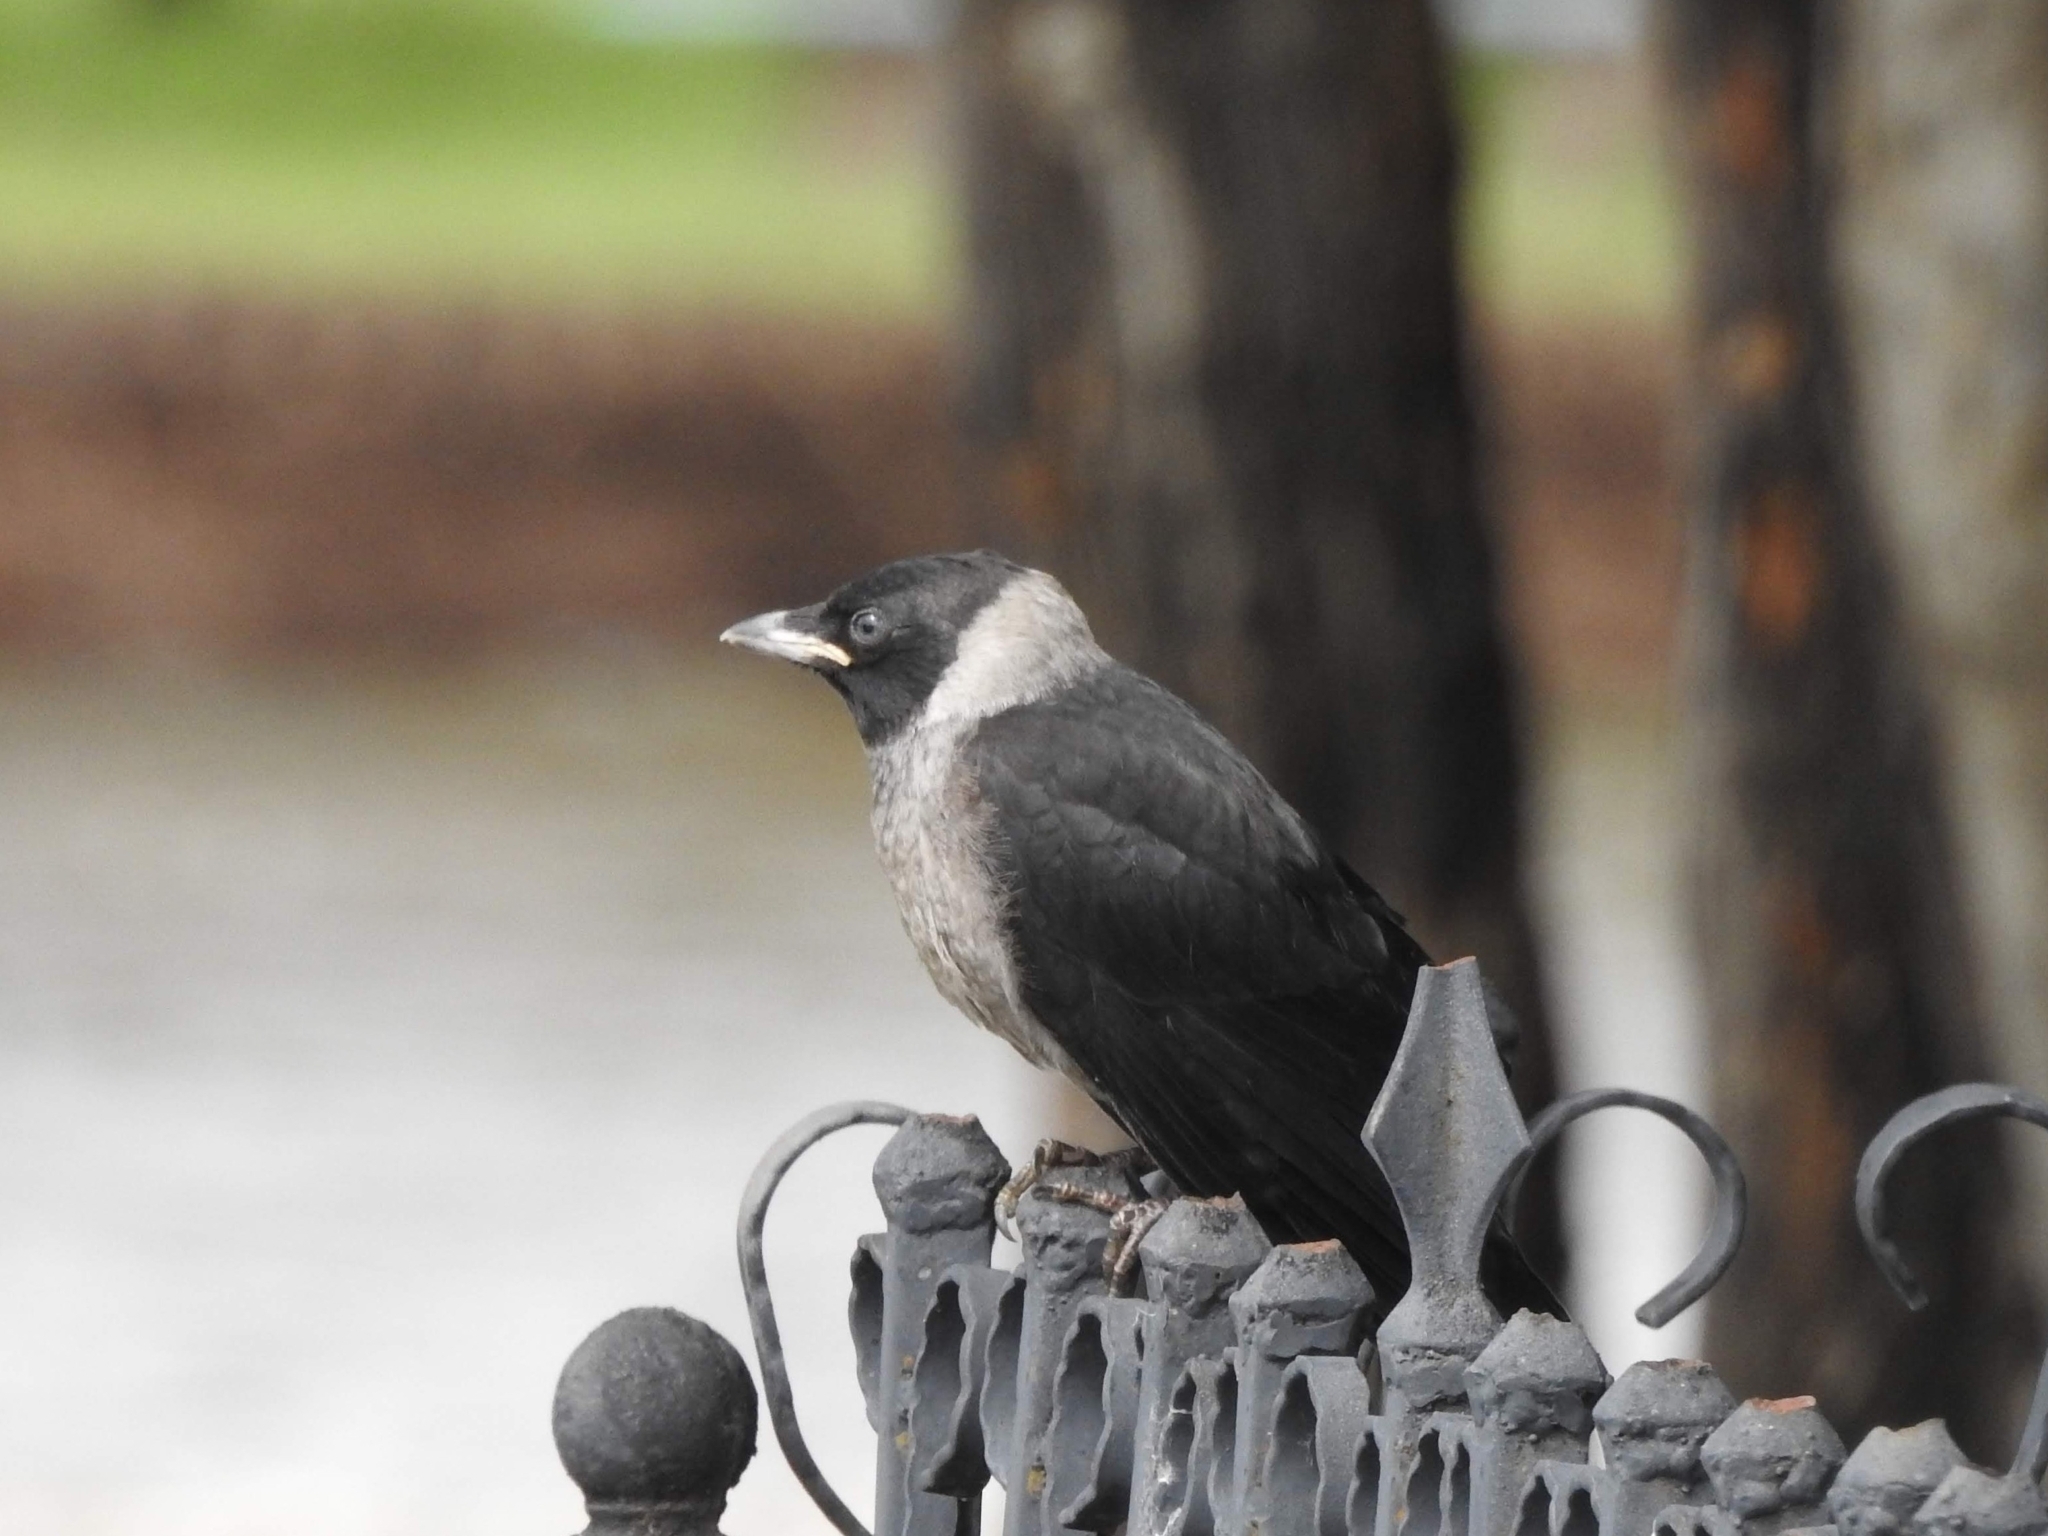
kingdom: Animalia
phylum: Chordata
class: Aves
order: Passeriformes
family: Corvidae
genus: Coloeus
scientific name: Coloeus dauuricus
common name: Daurian jackdaw
